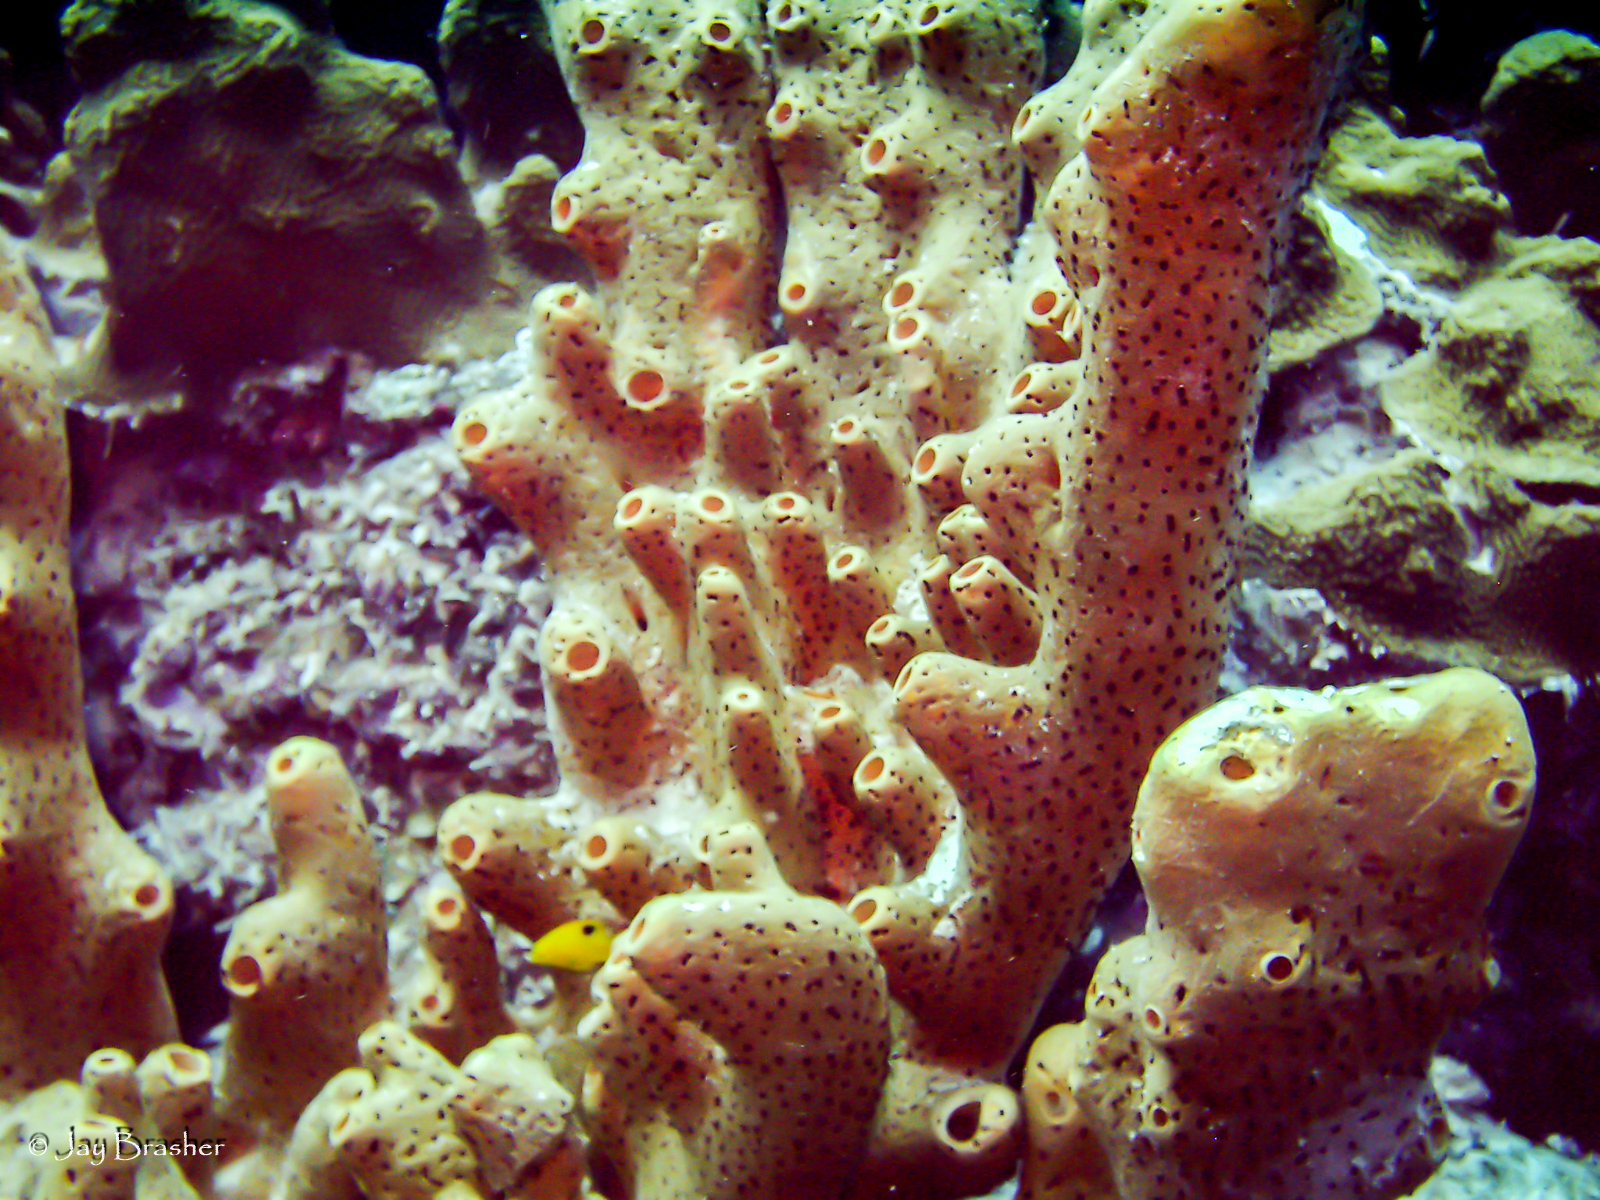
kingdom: Animalia
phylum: Porifera
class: Demospongiae
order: Agelasida
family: Agelasidae
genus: Agelas
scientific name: Agelas conifera
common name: Brown tube sponge
